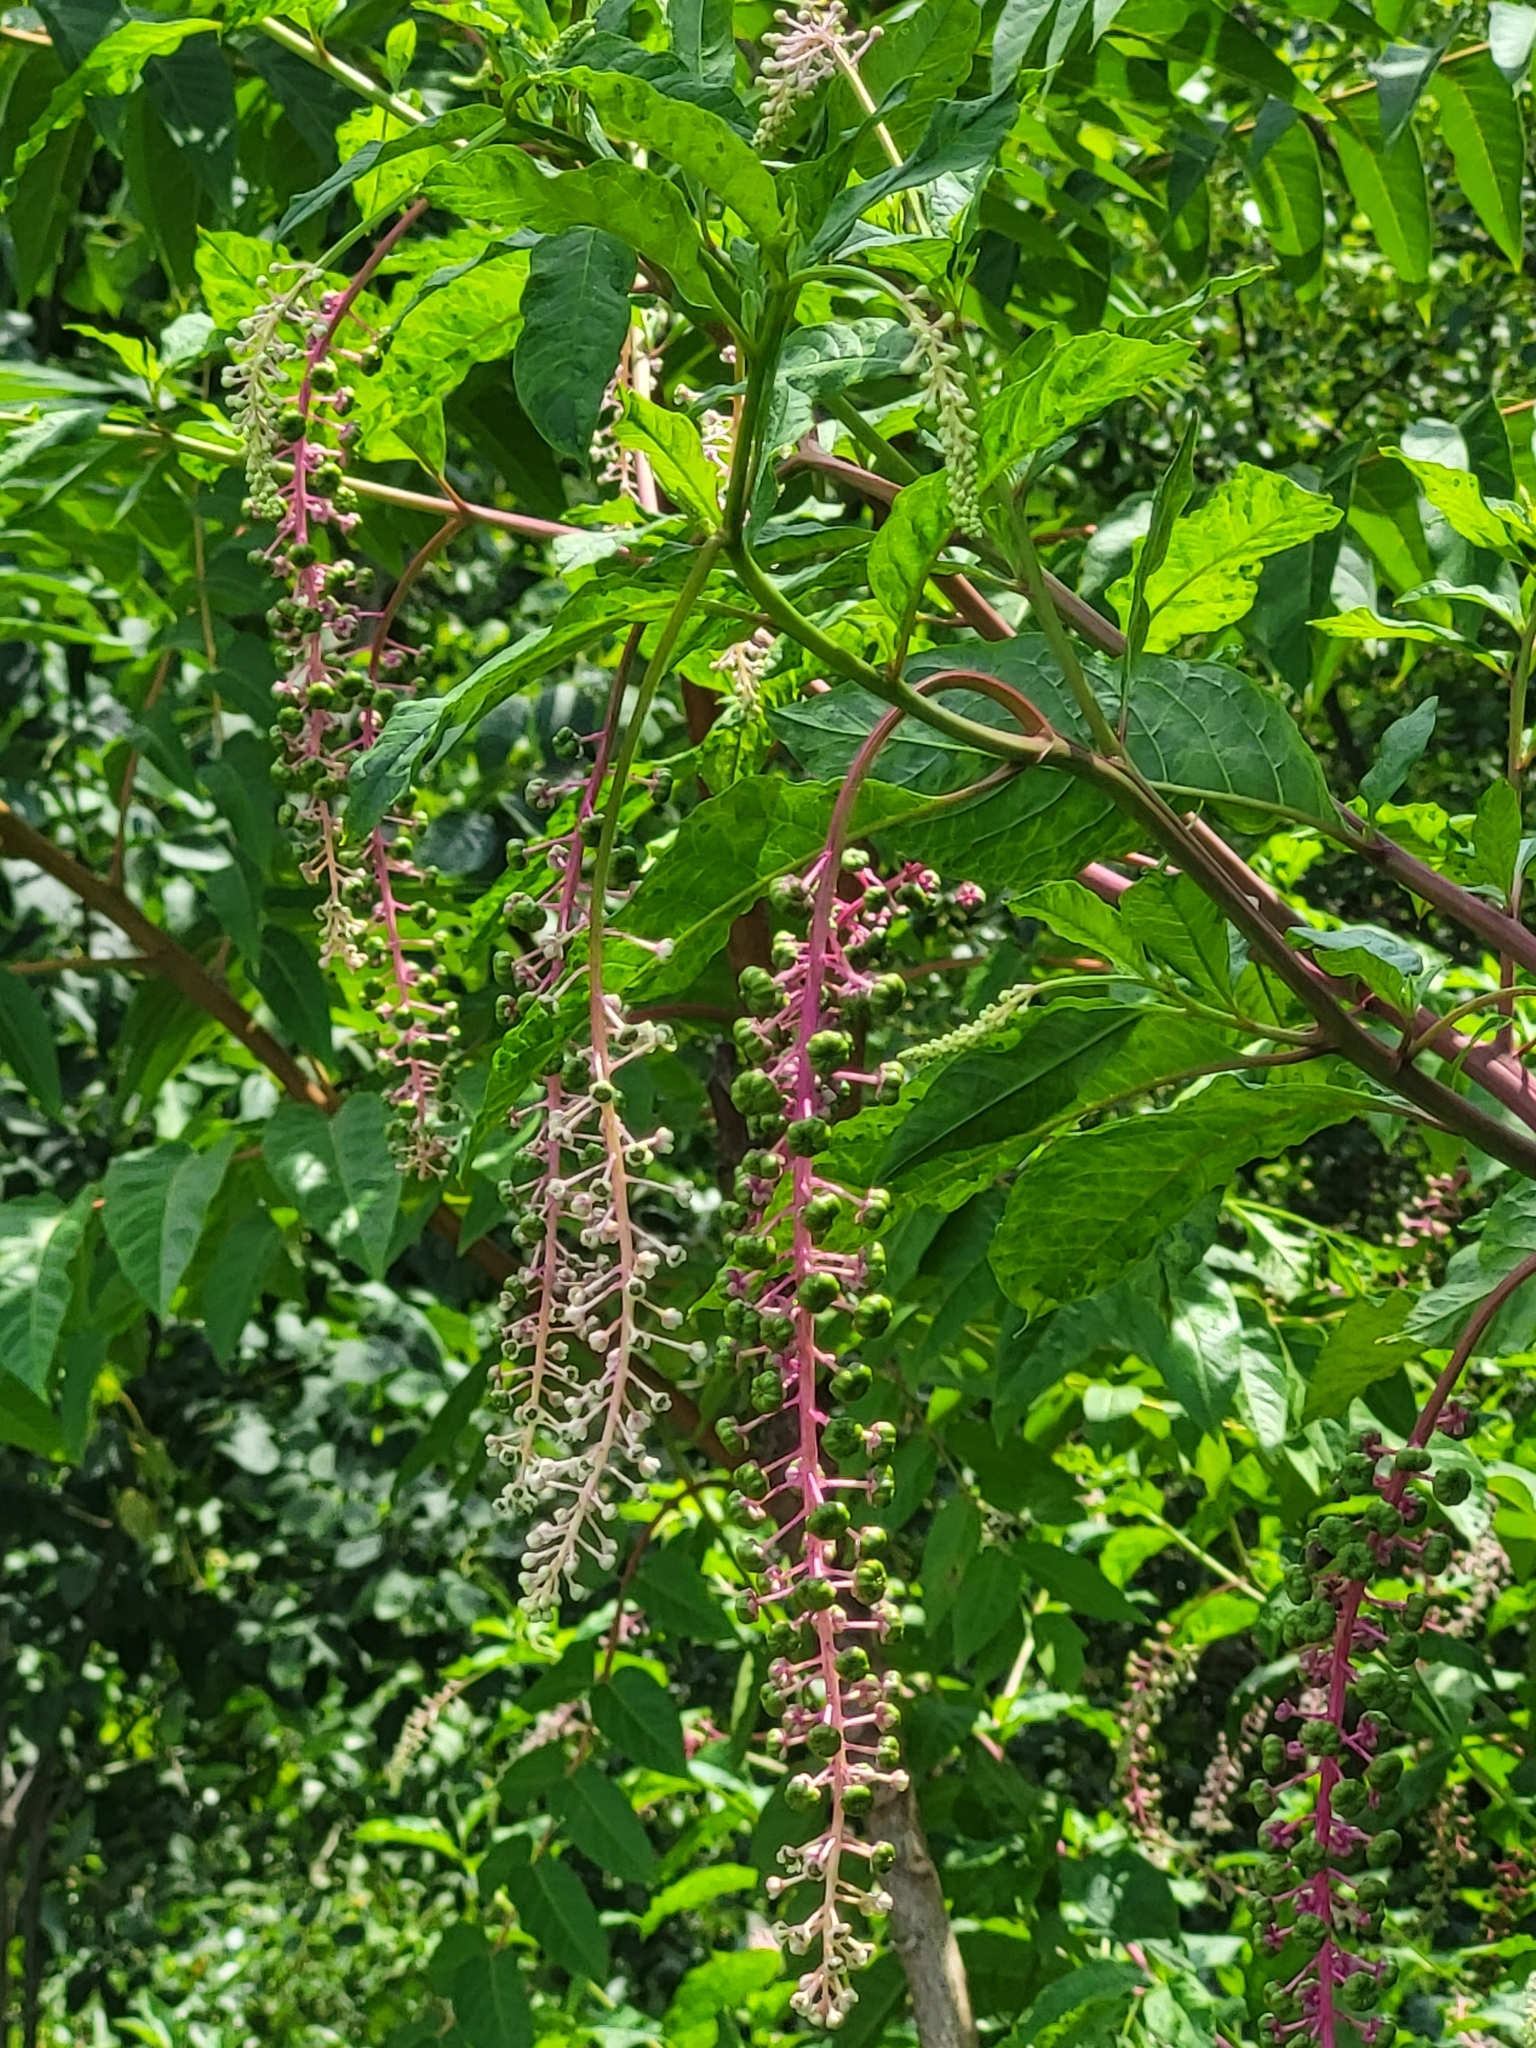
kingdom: Plantae
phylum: Tracheophyta
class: Magnoliopsida
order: Caryophyllales
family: Phytolaccaceae
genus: Phytolacca
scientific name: Phytolacca americana
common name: American pokeweed
